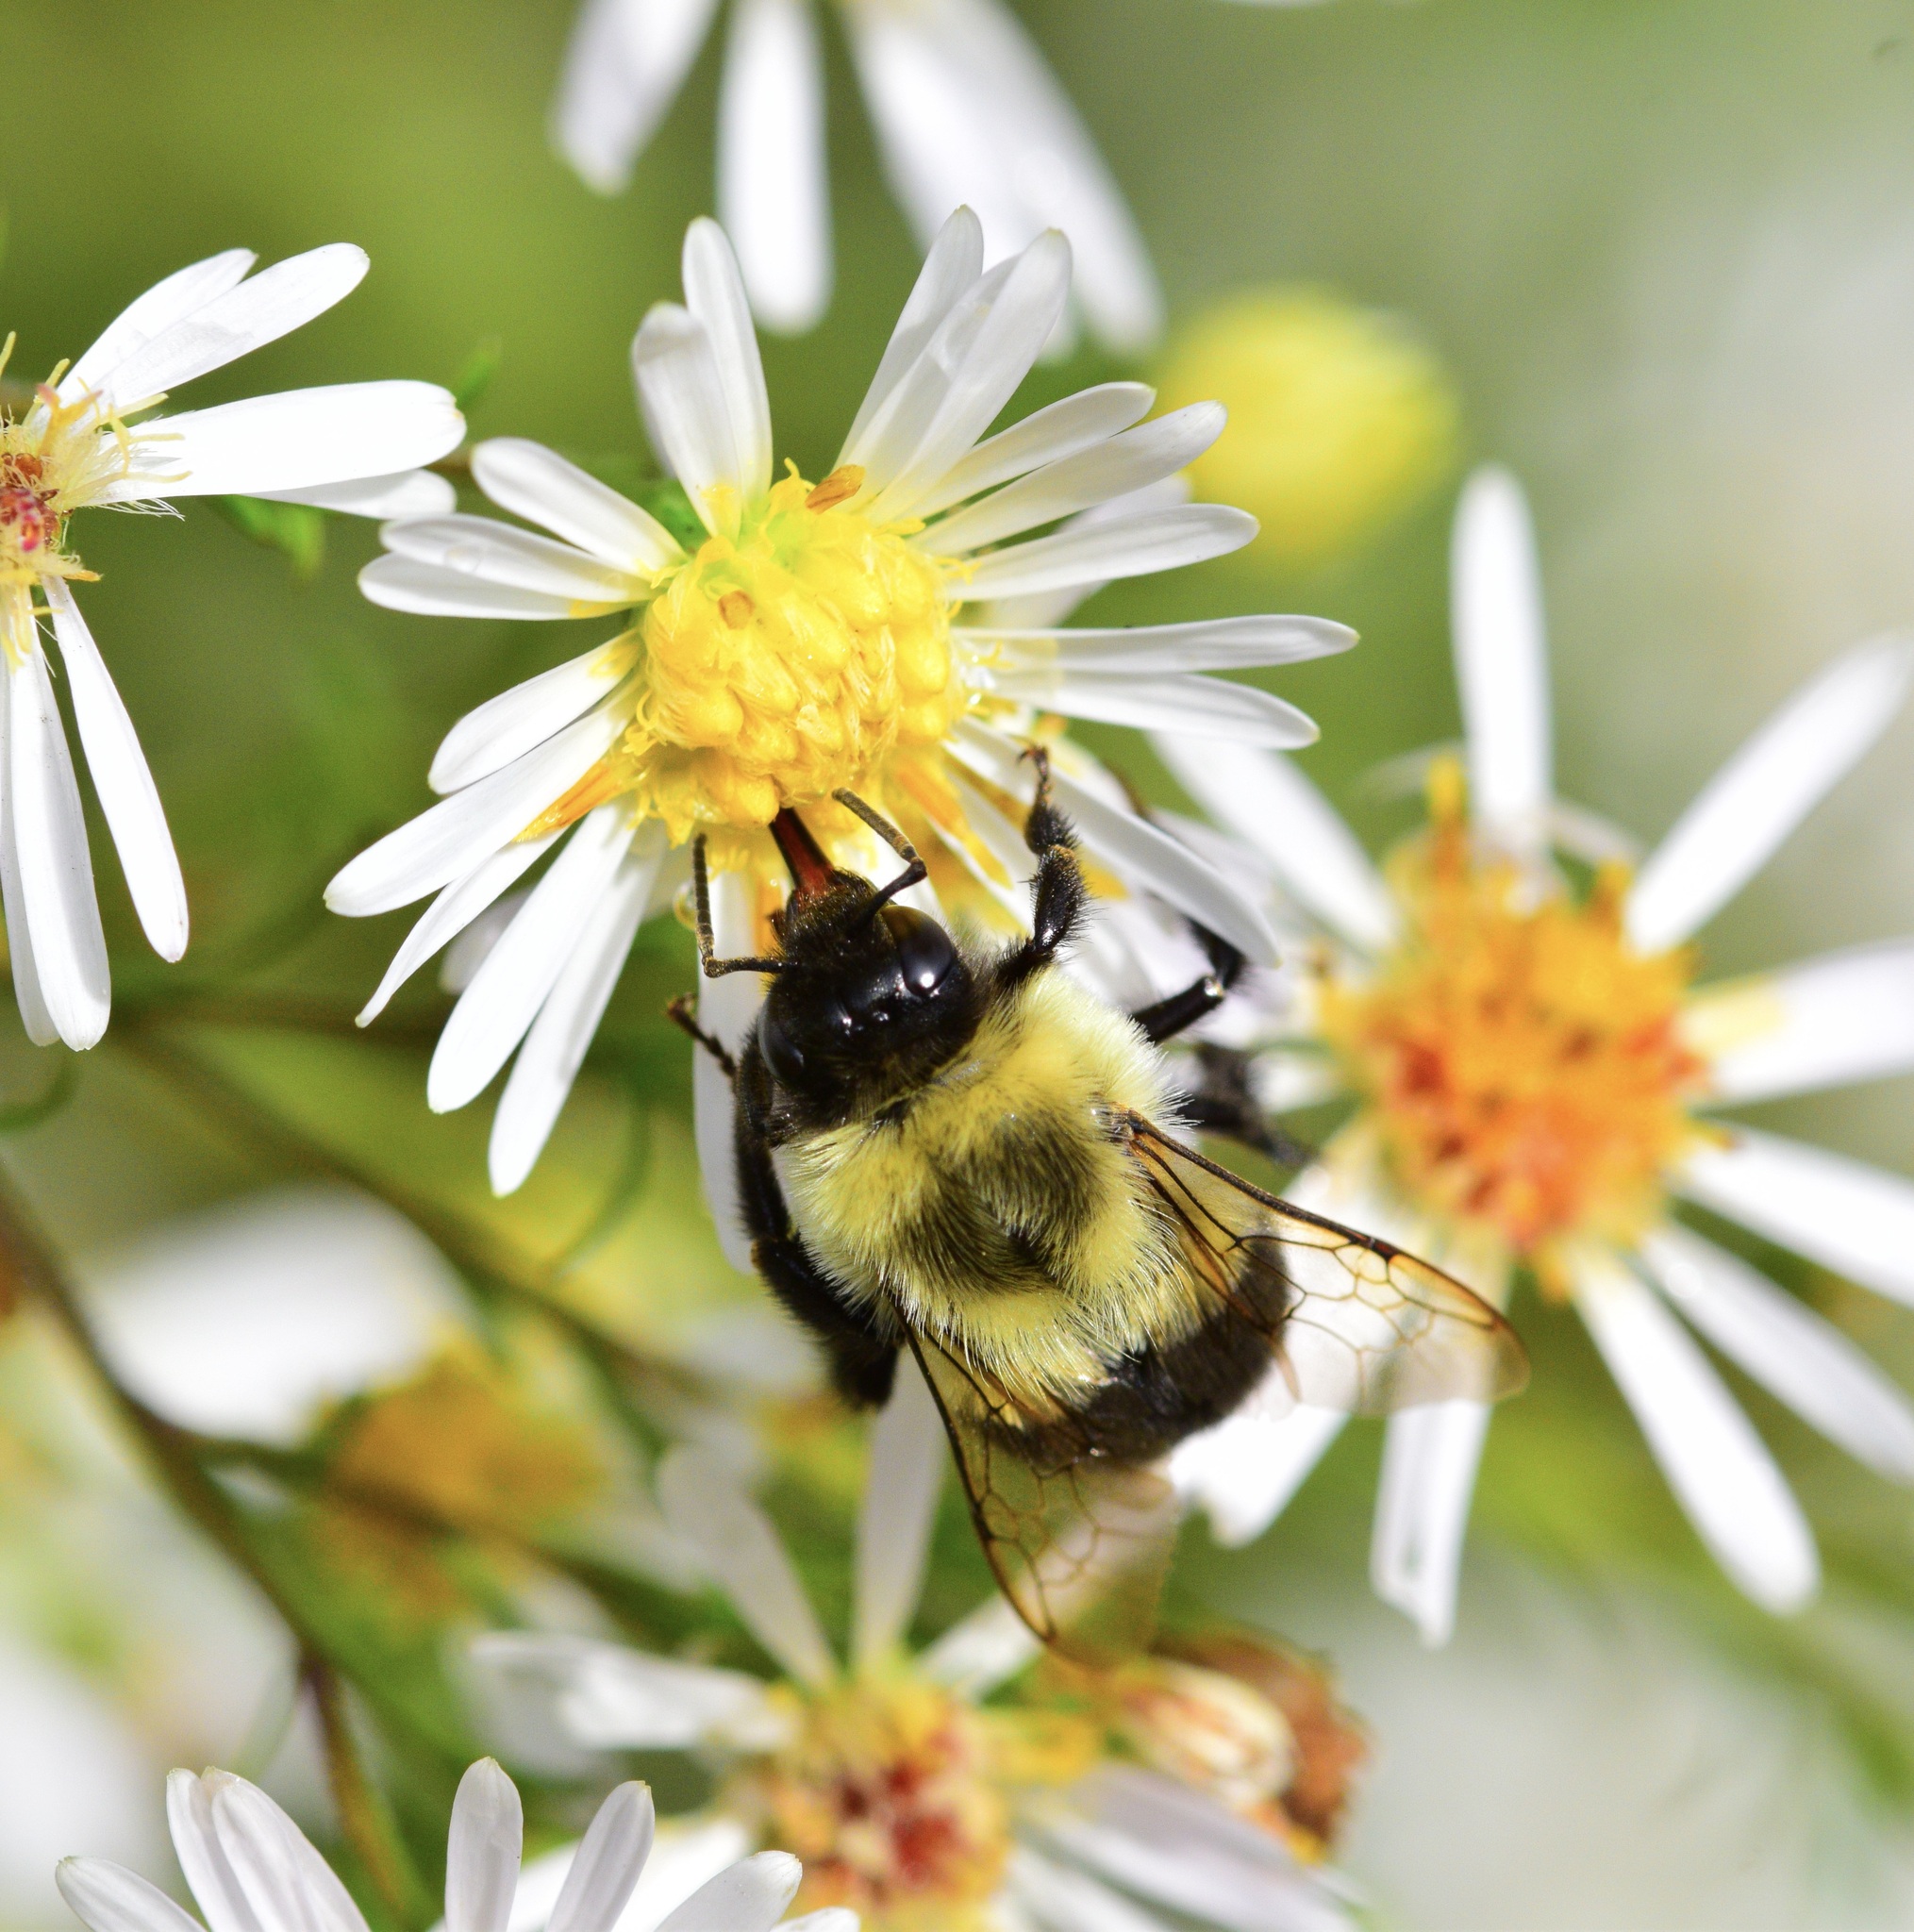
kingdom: Animalia
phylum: Arthropoda
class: Insecta
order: Hymenoptera
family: Apidae
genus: Bombus
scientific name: Bombus impatiens
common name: Common eastern bumble bee
